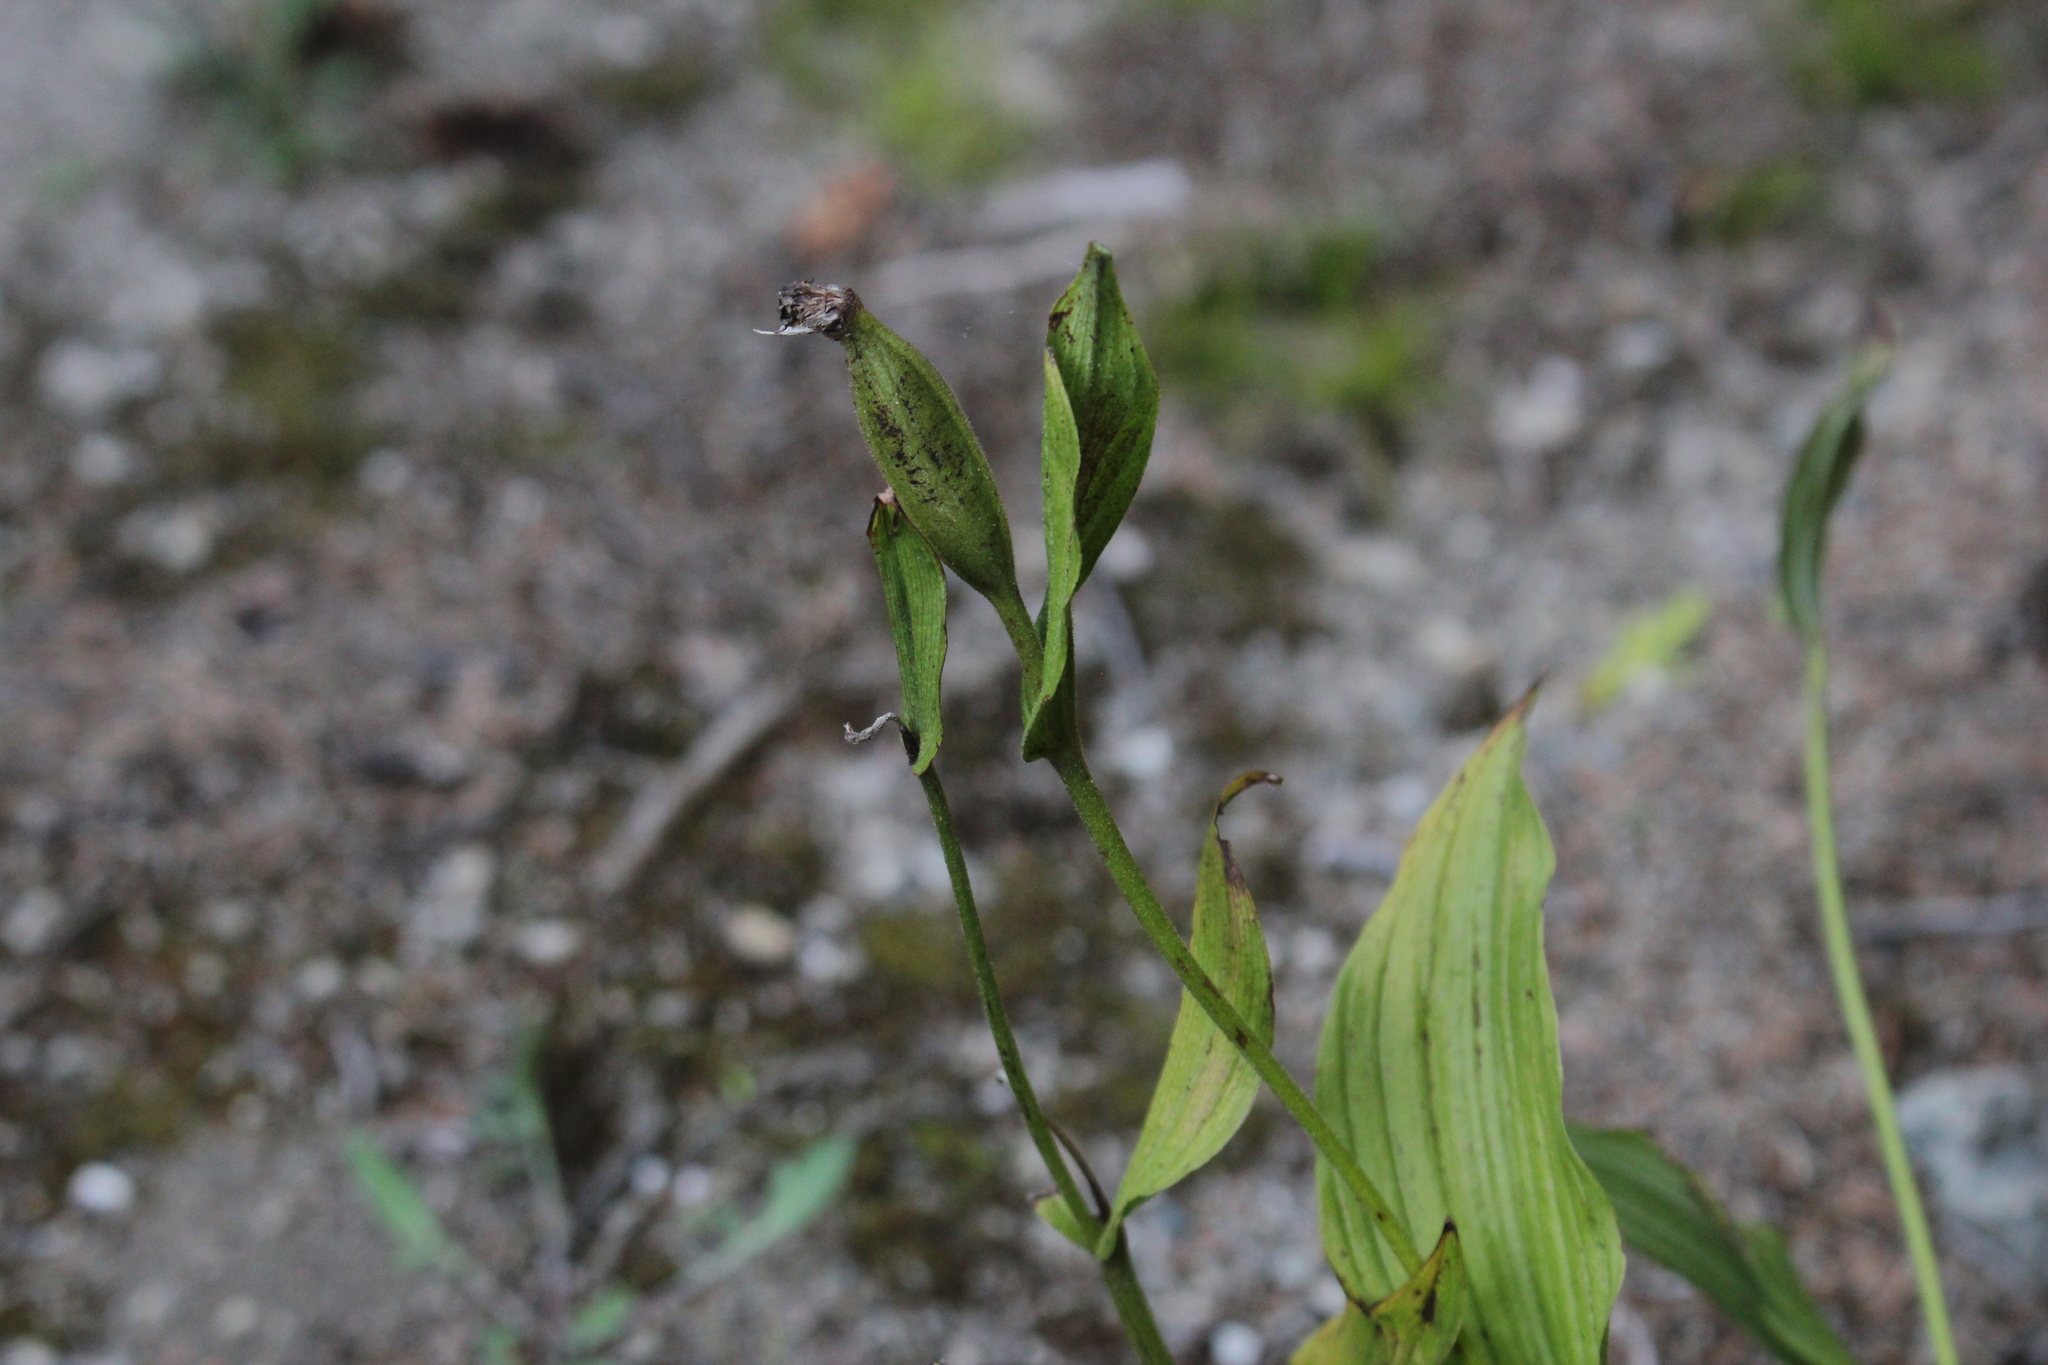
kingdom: Plantae
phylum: Tracheophyta
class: Liliopsida
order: Asparagales
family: Orchidaceae
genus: Cypripedium
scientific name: Cypripedium parviflorum
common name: American yellow lady's-slipper
